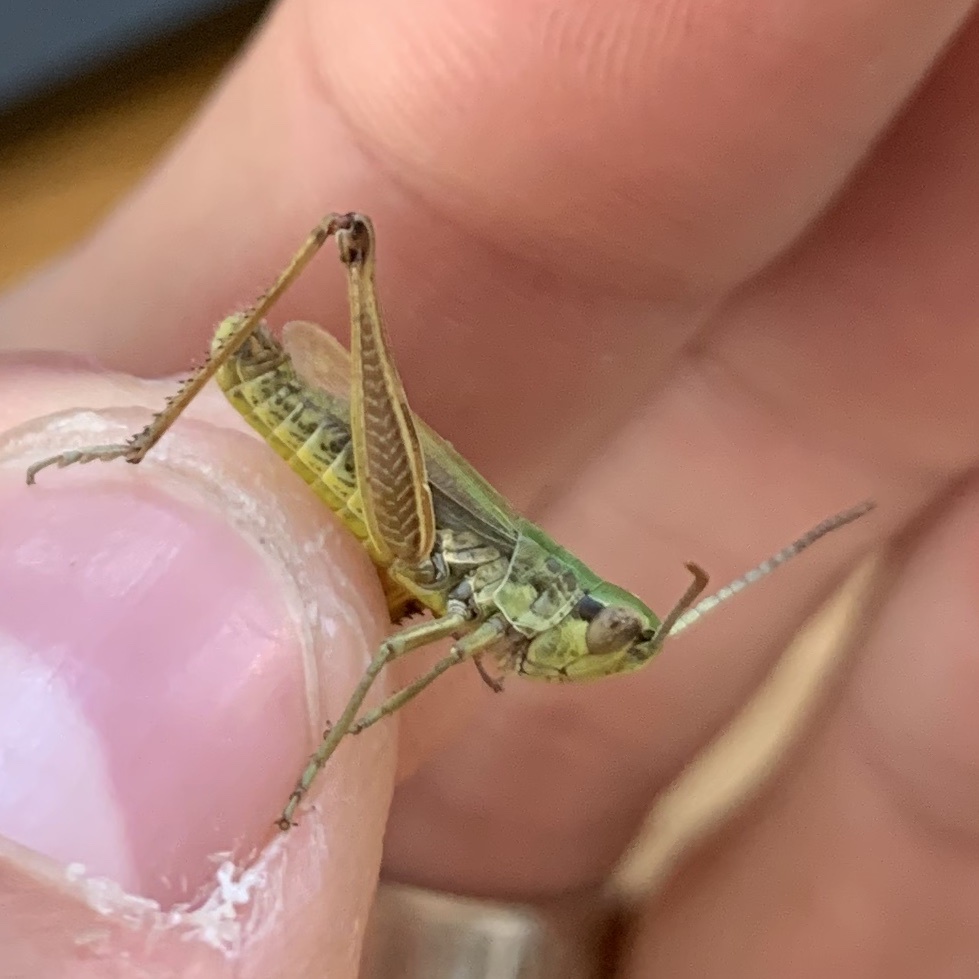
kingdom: Animalia
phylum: Arthropoda
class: Insecta
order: Orthoptera
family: Acrididae
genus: Pseudochorthippus
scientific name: Pseudochorthippus parallelus
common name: Meadow grasshopper
